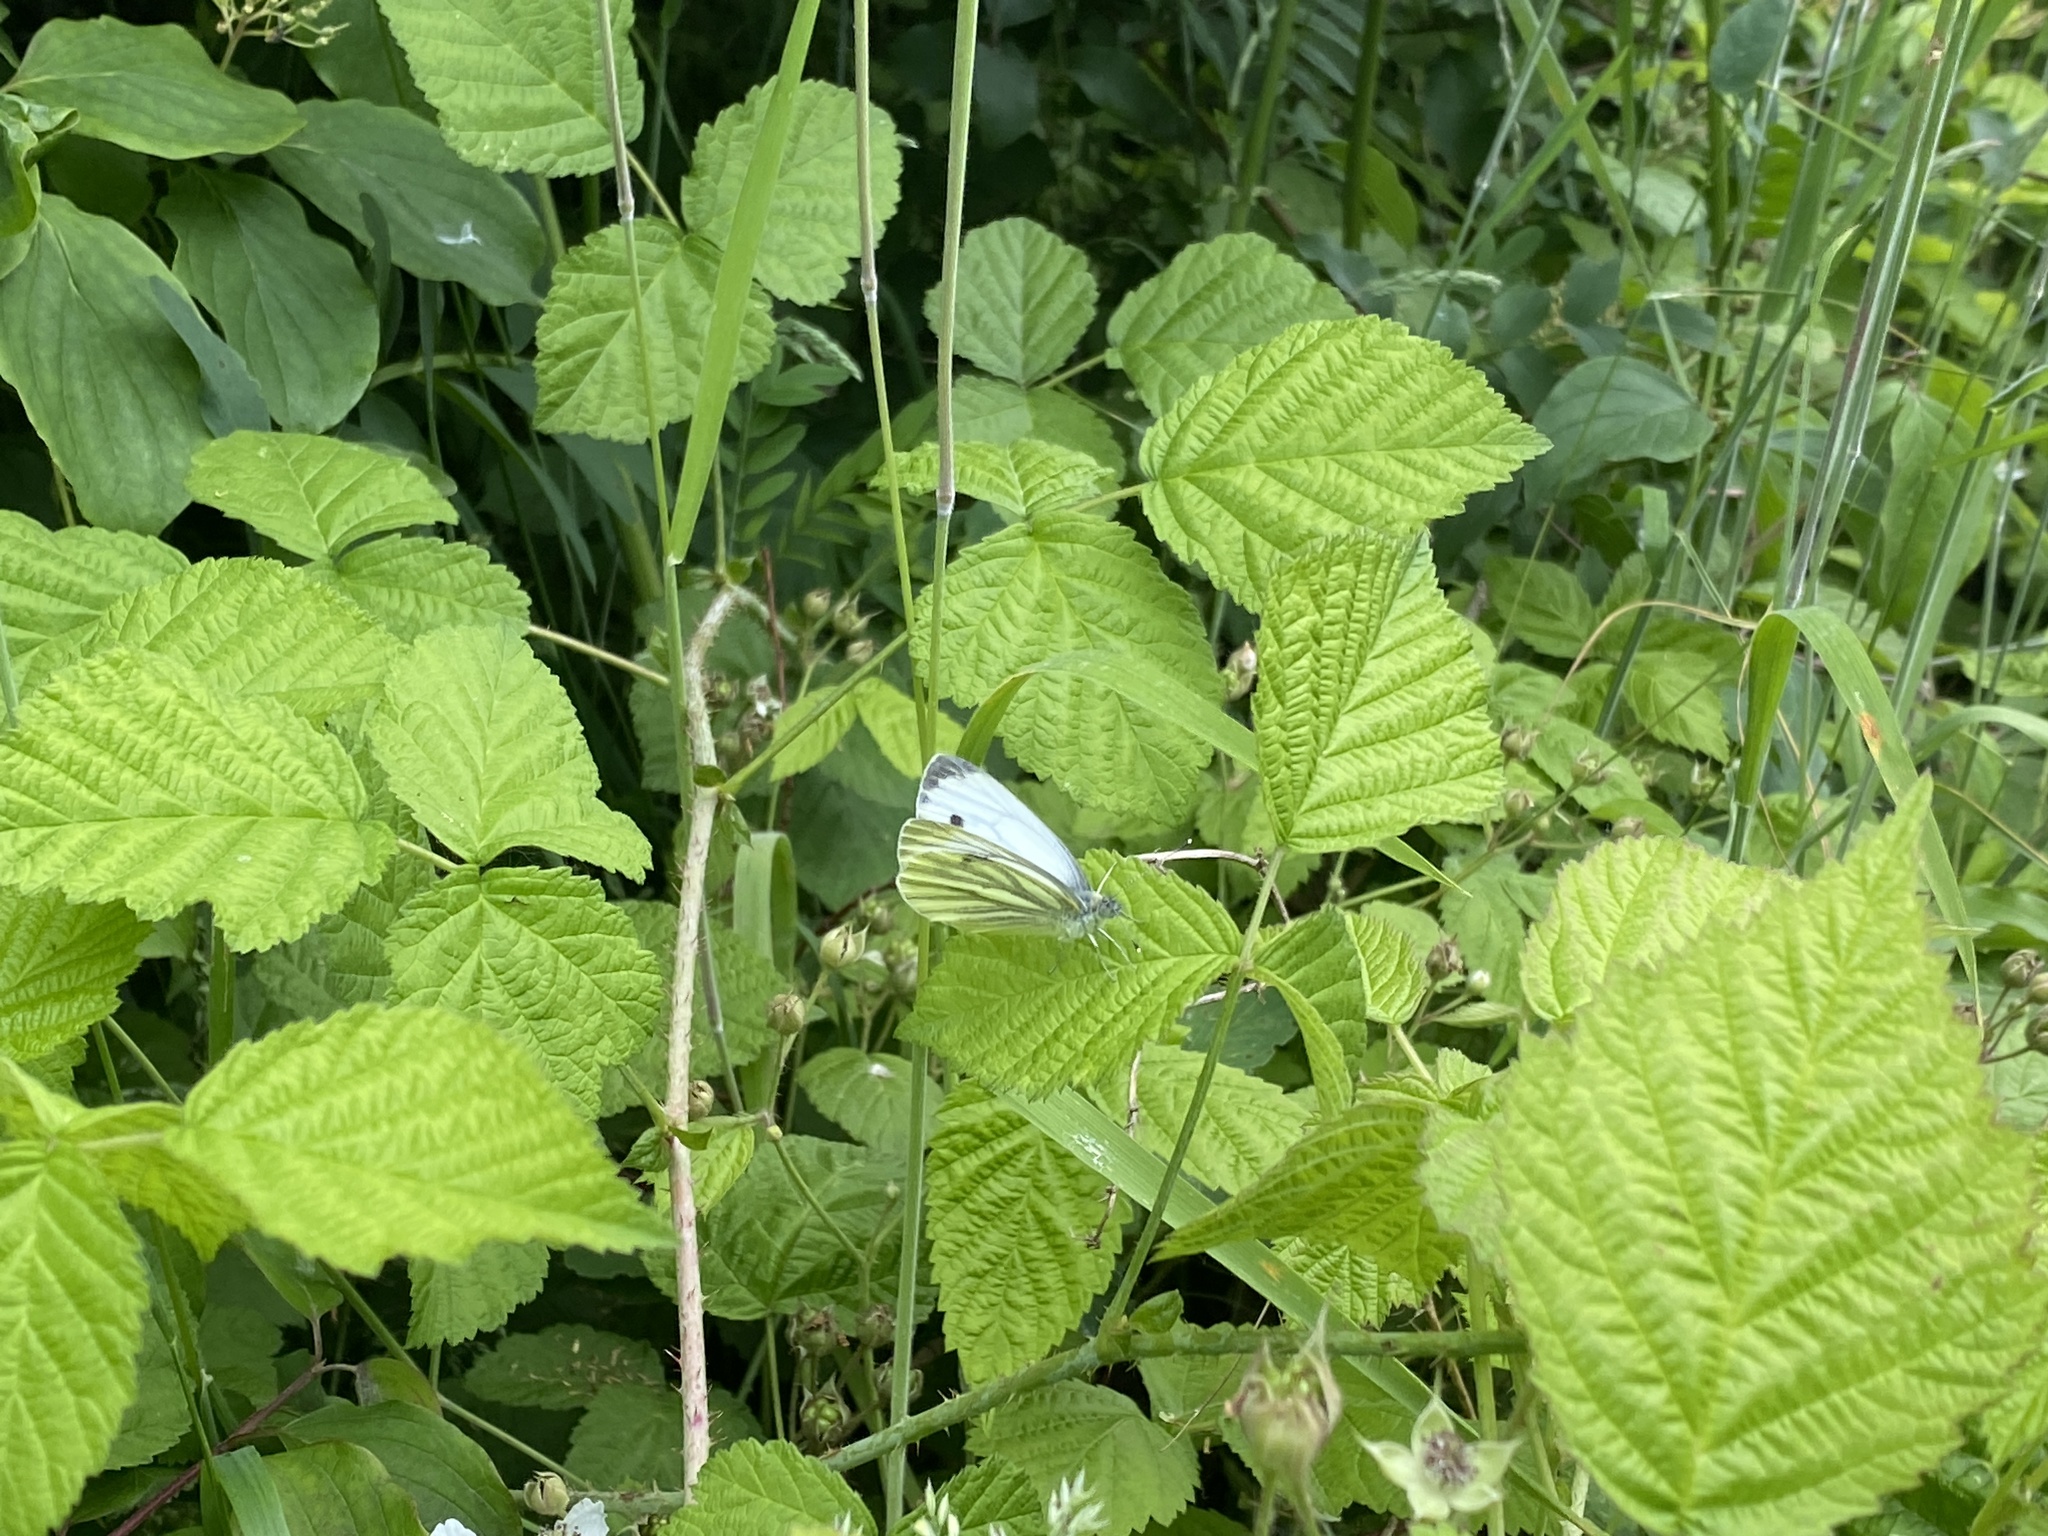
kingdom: Animalia
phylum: Arthropoda
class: Insecta
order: Lepidoptera
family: Pieridae
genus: Pieris
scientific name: Pieris napi
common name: Green-veined white
